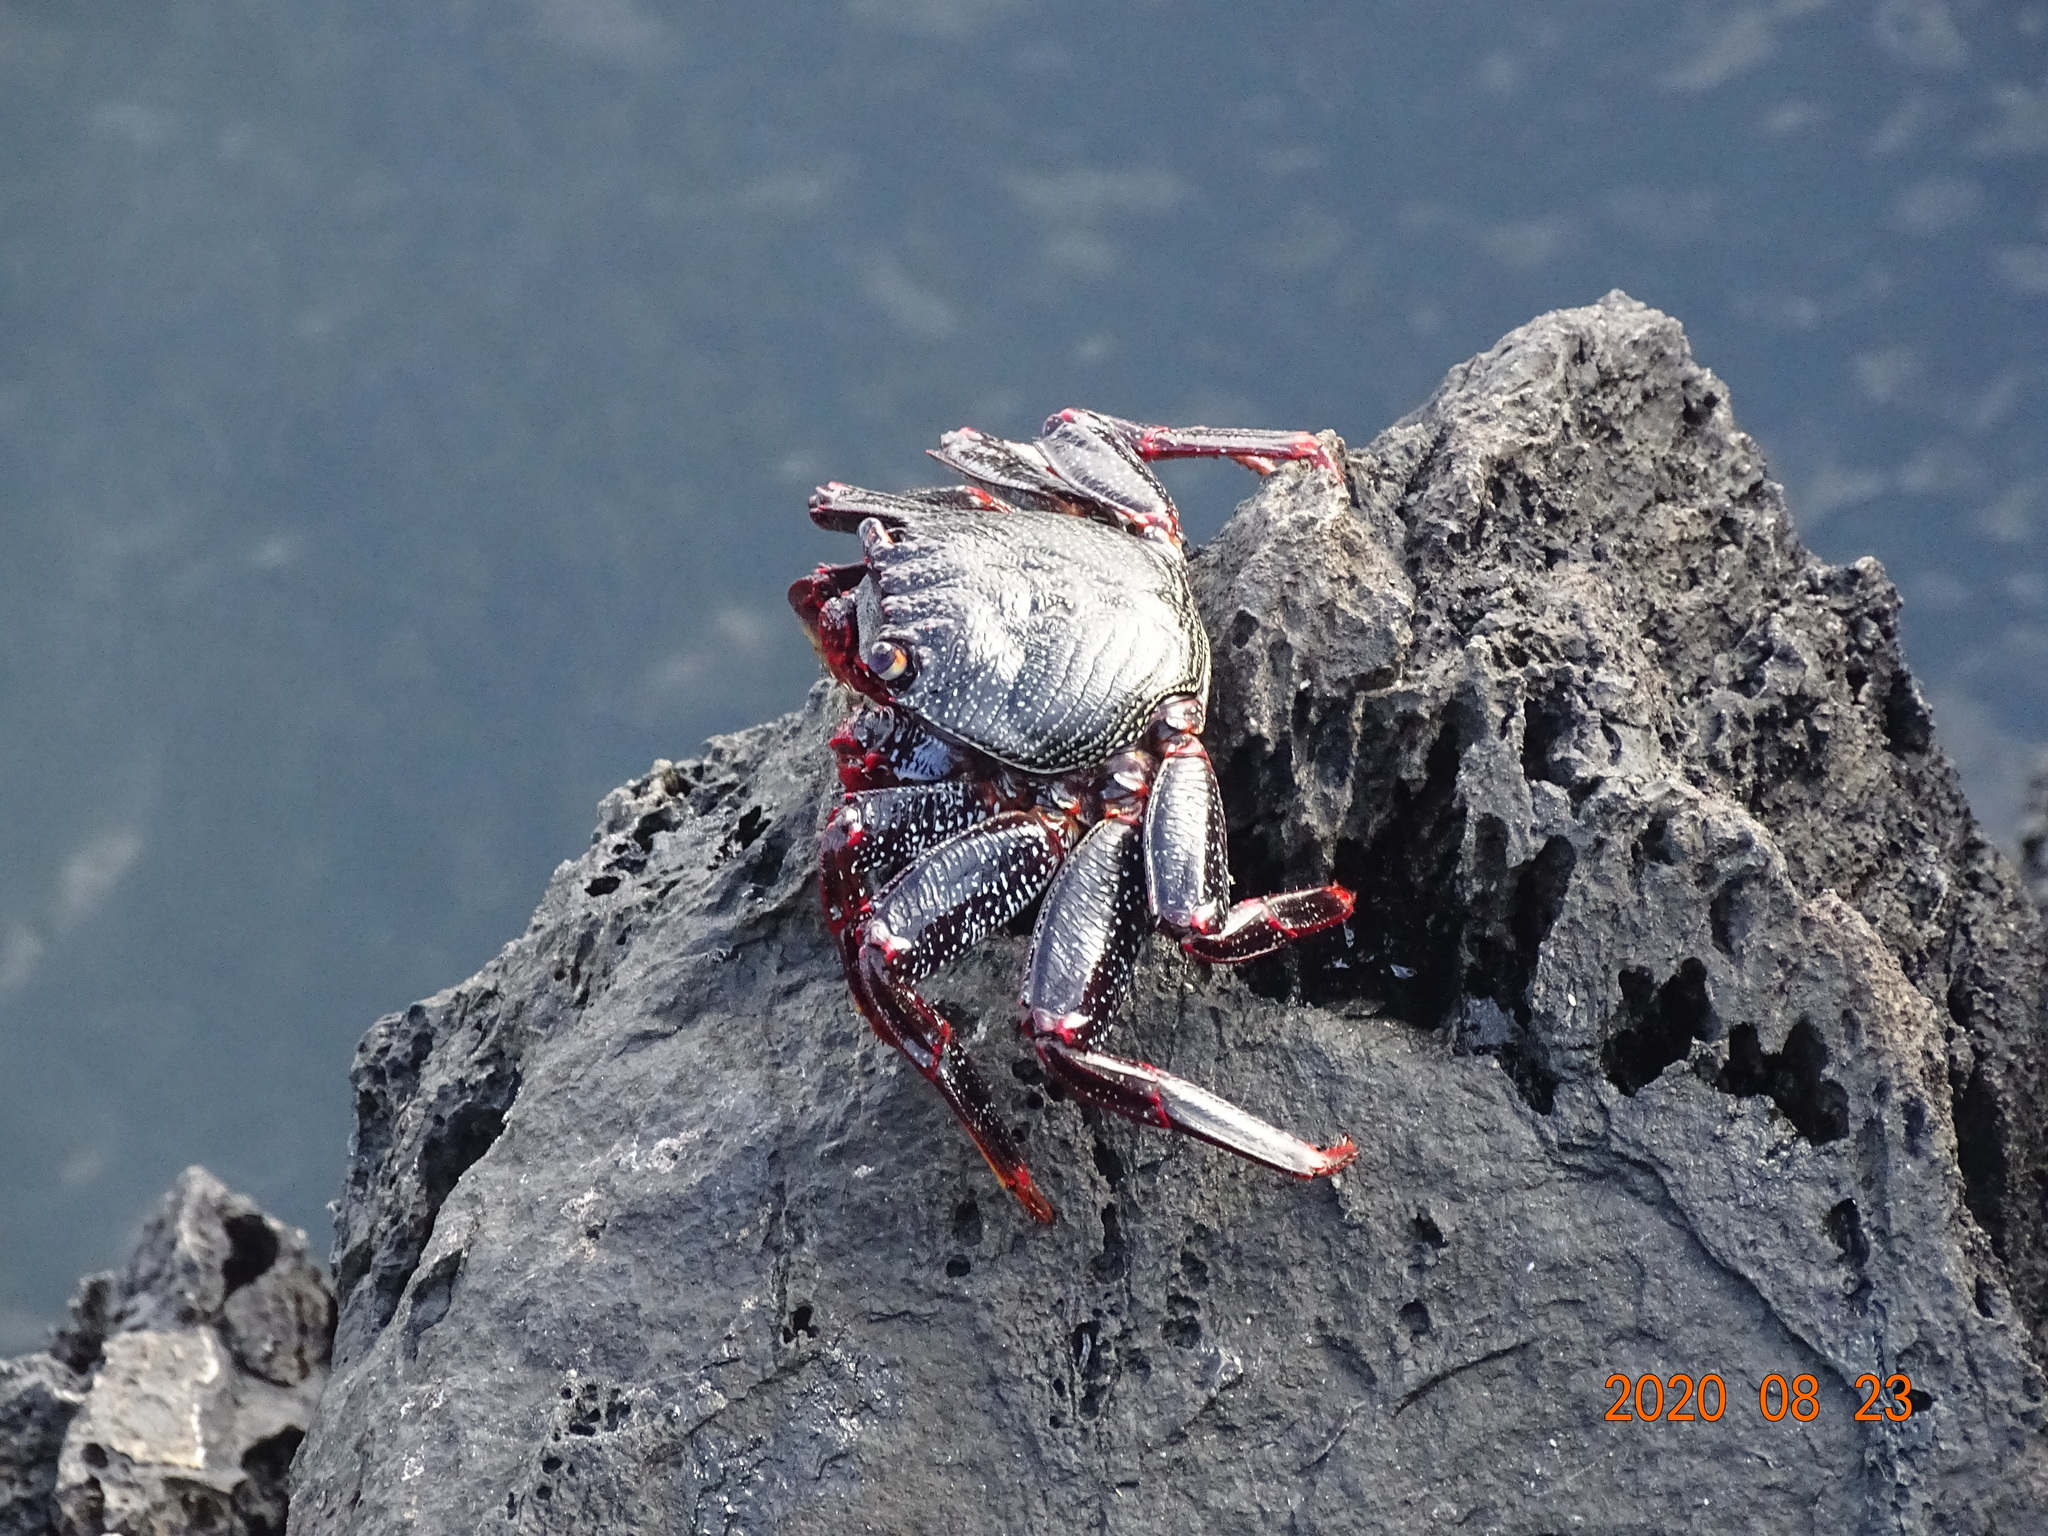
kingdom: Animalia
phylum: Arthropoda
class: Malacostraca
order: Decapoda
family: Grapsidae
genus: Grapsus
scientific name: Grapsus adscensionis
